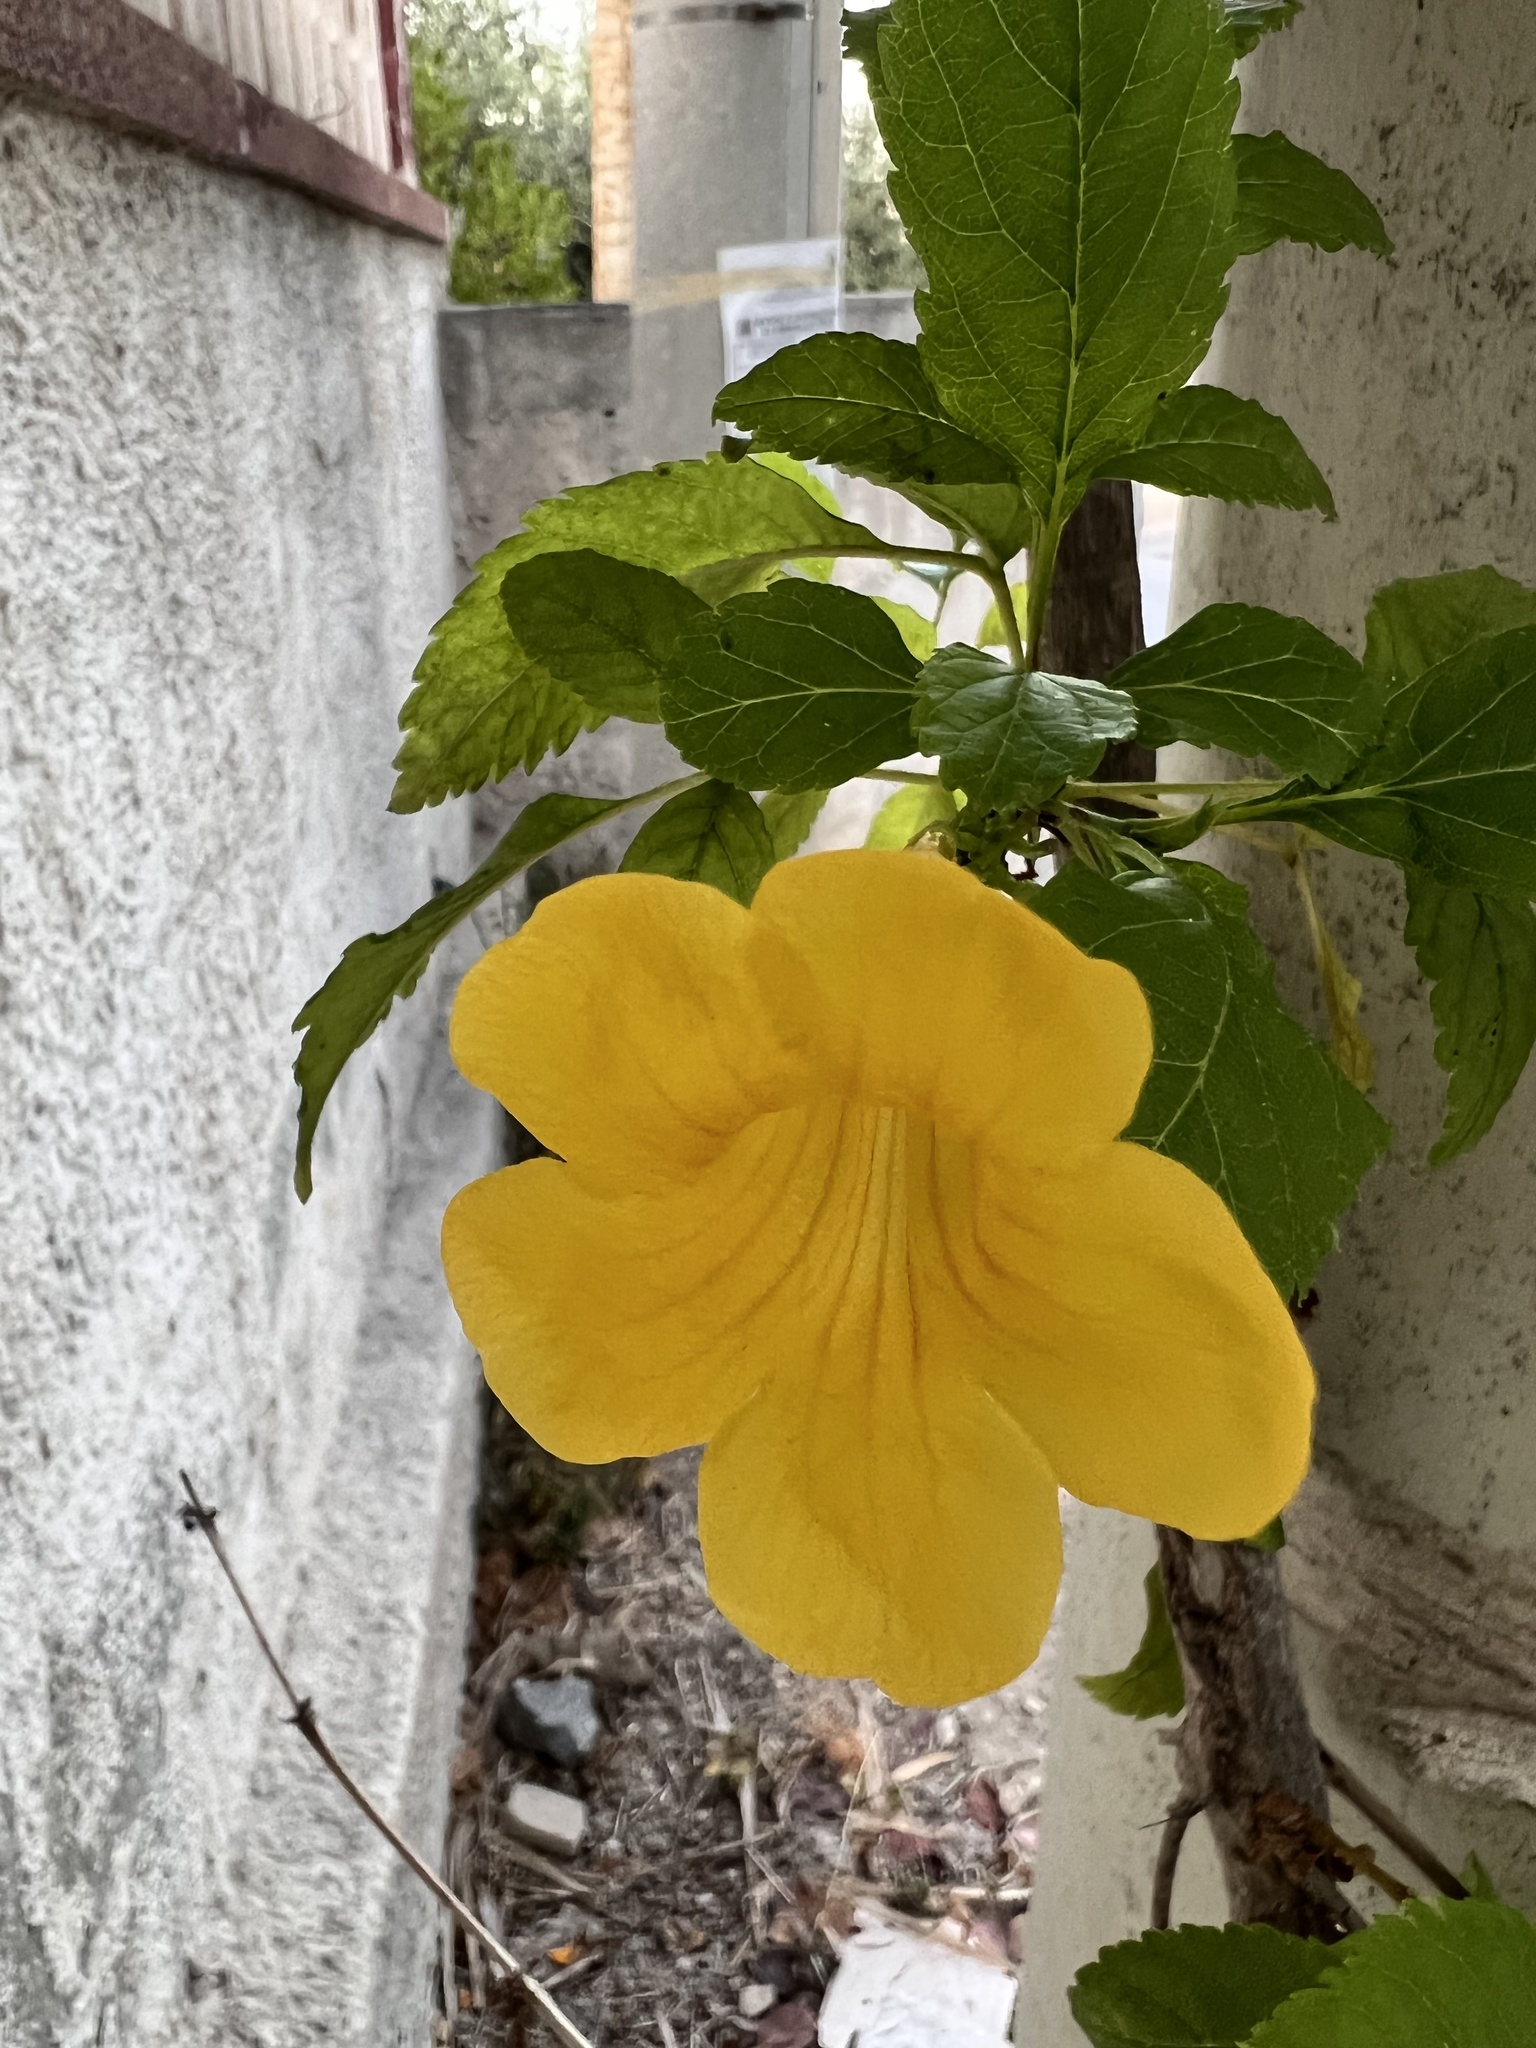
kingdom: Plantae
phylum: Tracheophyta
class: Magnoliopsida
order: Lamiales
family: Bignoniaceae
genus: Tecoma
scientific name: Tecoma stans
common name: Yellow trumpetbush
